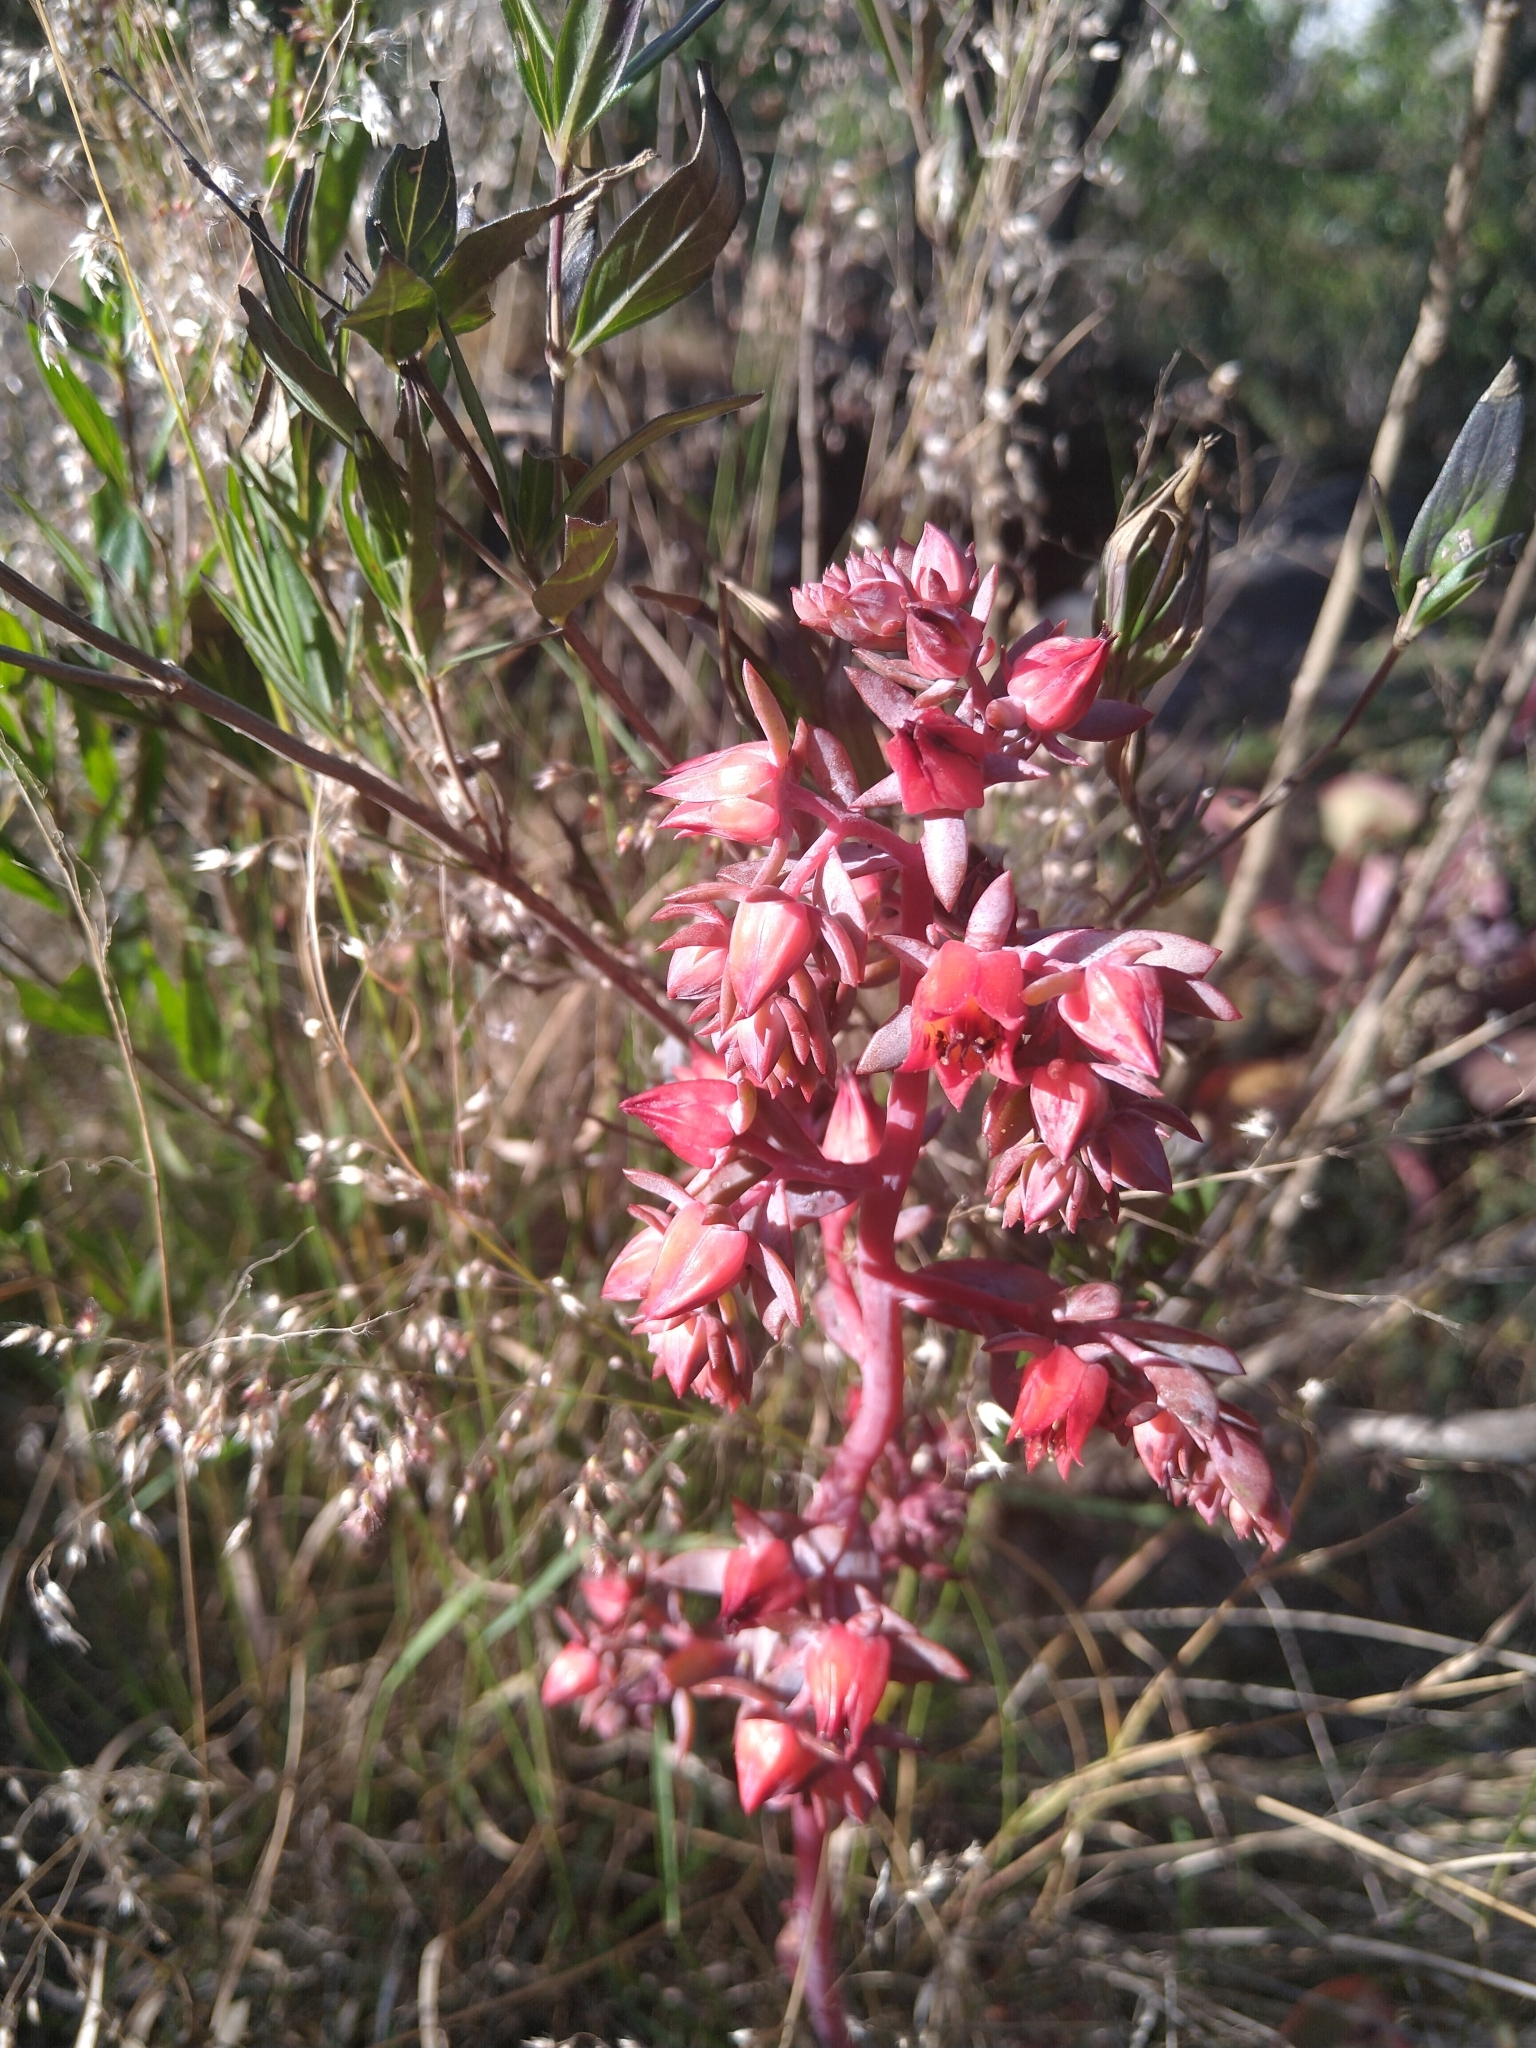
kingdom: Plantae
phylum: Tracheophyta
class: Magnoliopsida
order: Saxifragales
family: Crassulaceae
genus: Echeveria
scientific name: Echeveria gibbiflora
